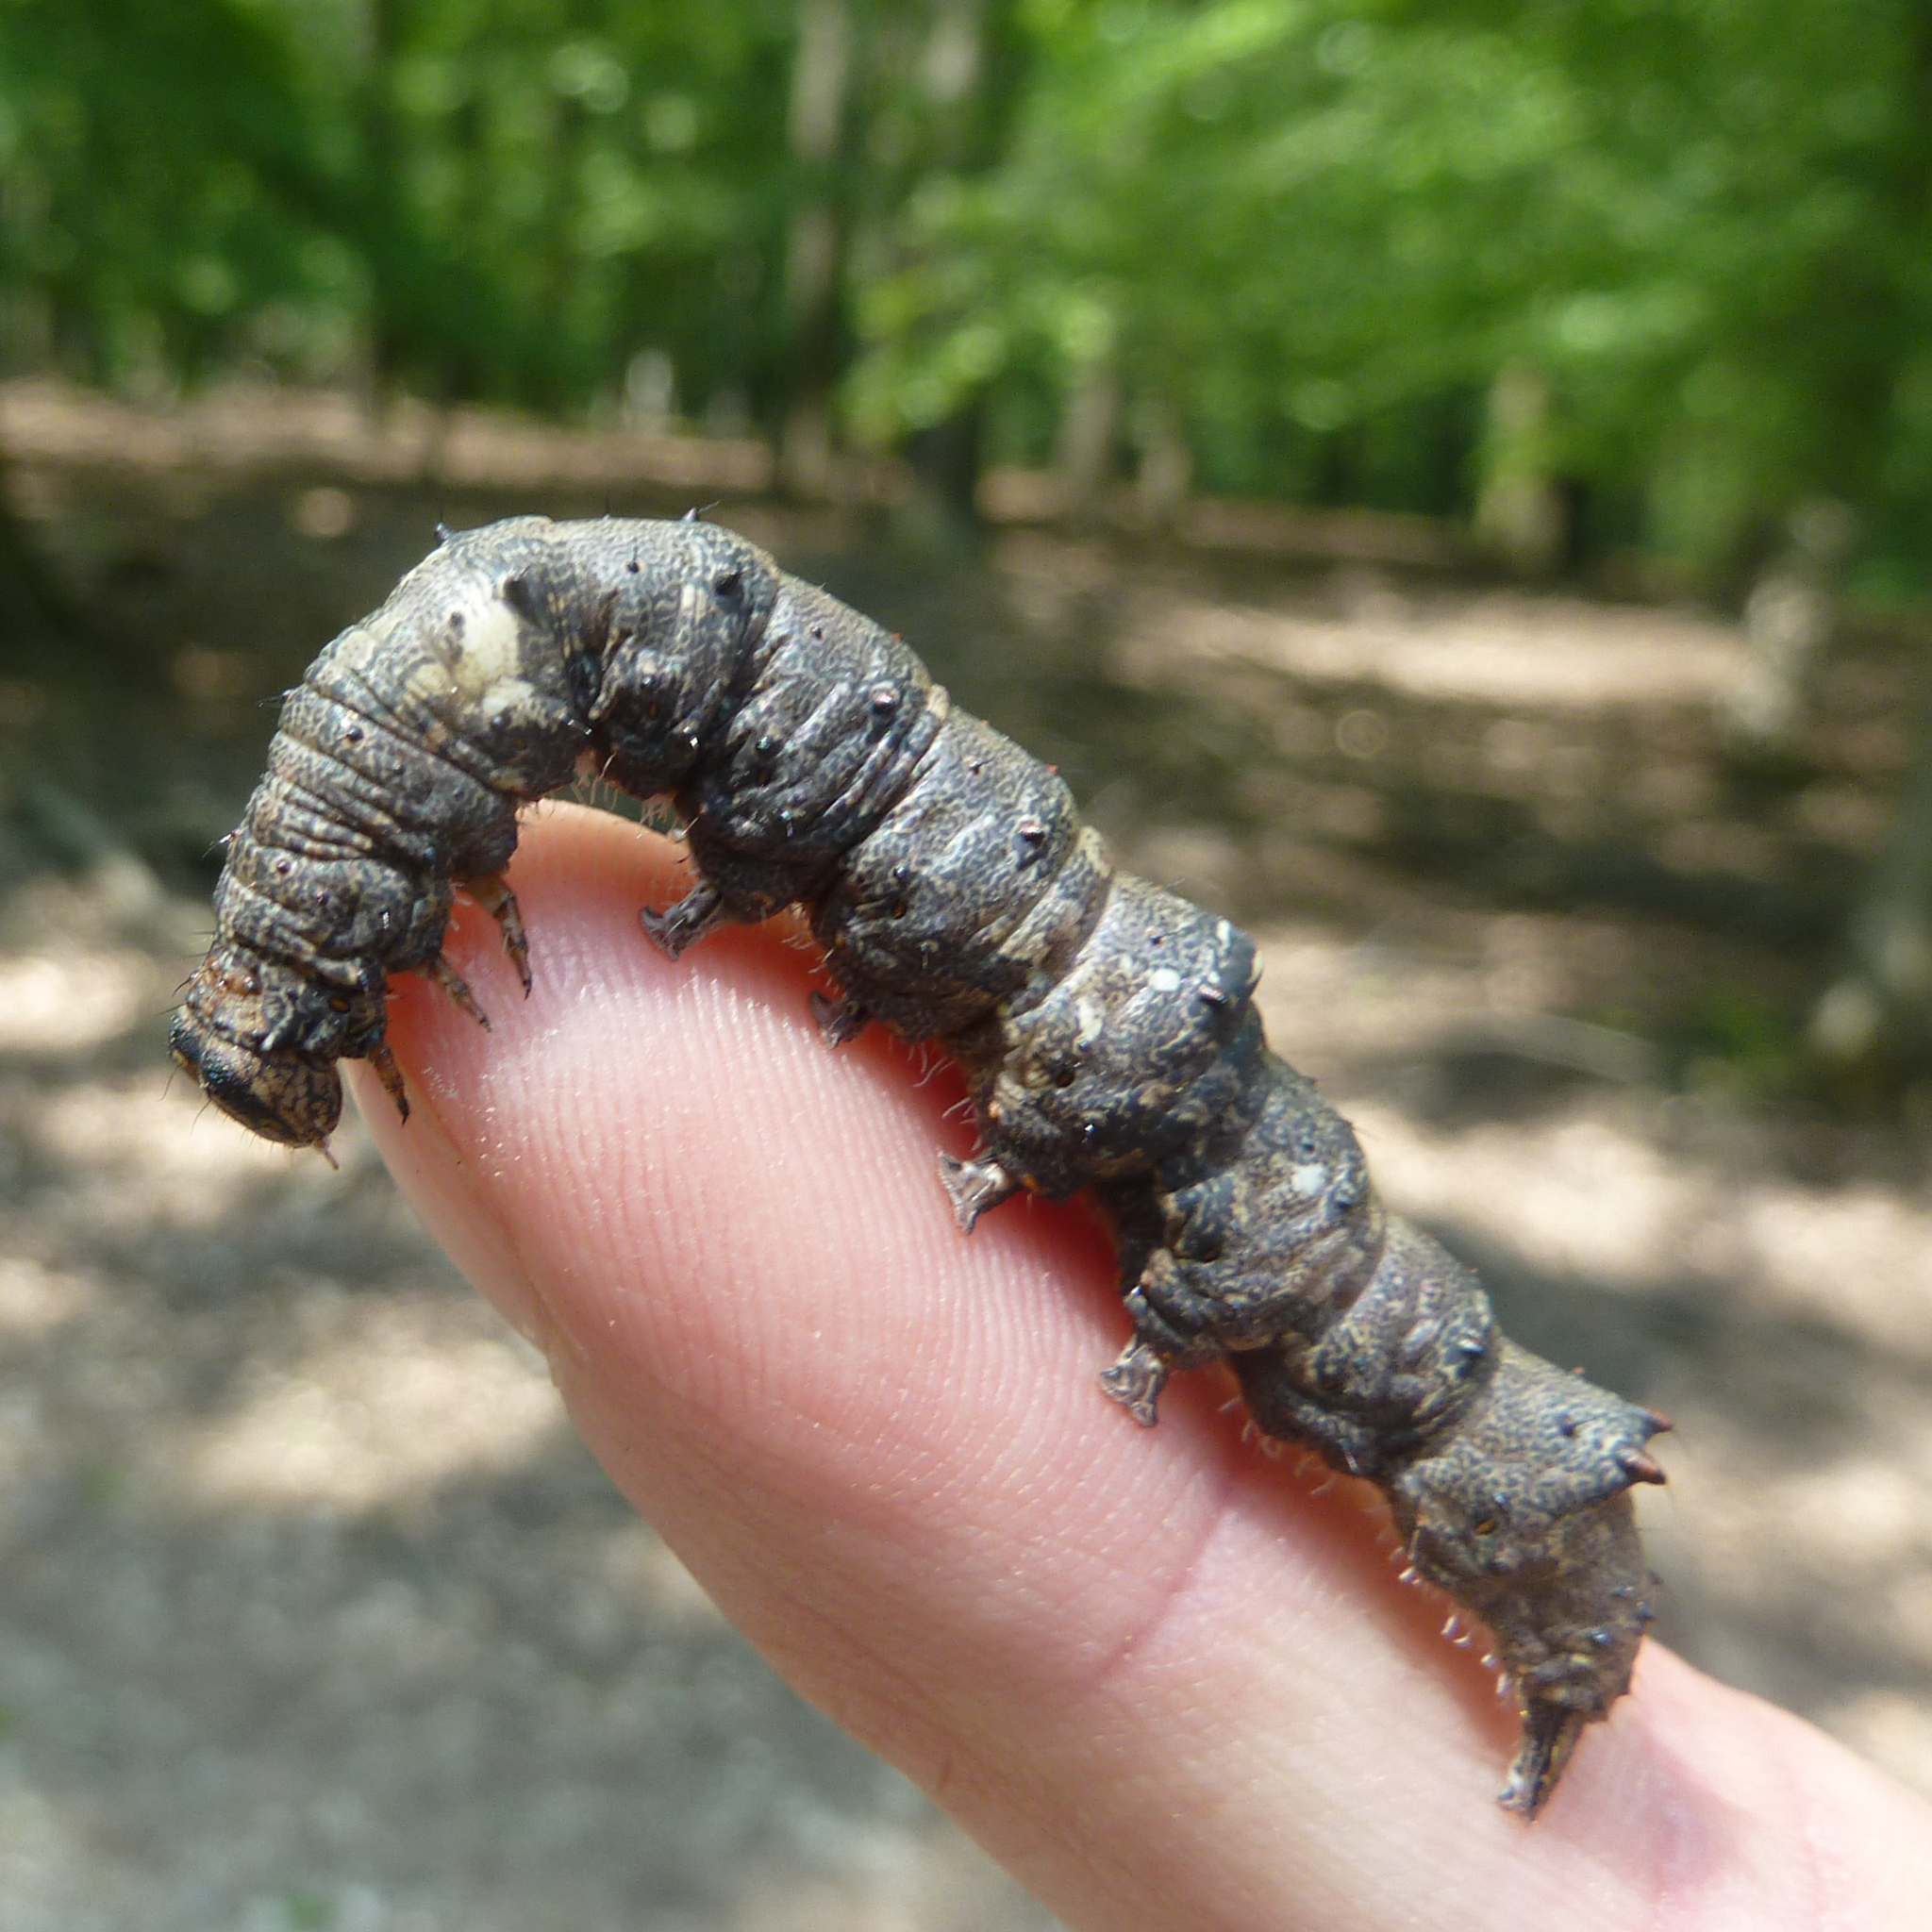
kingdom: Animalia
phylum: Arthropoda
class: Insecta
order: Lepidoptera
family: Erebidae
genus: Catocala
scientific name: Catocala sponsa
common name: Dark crimson underwing
